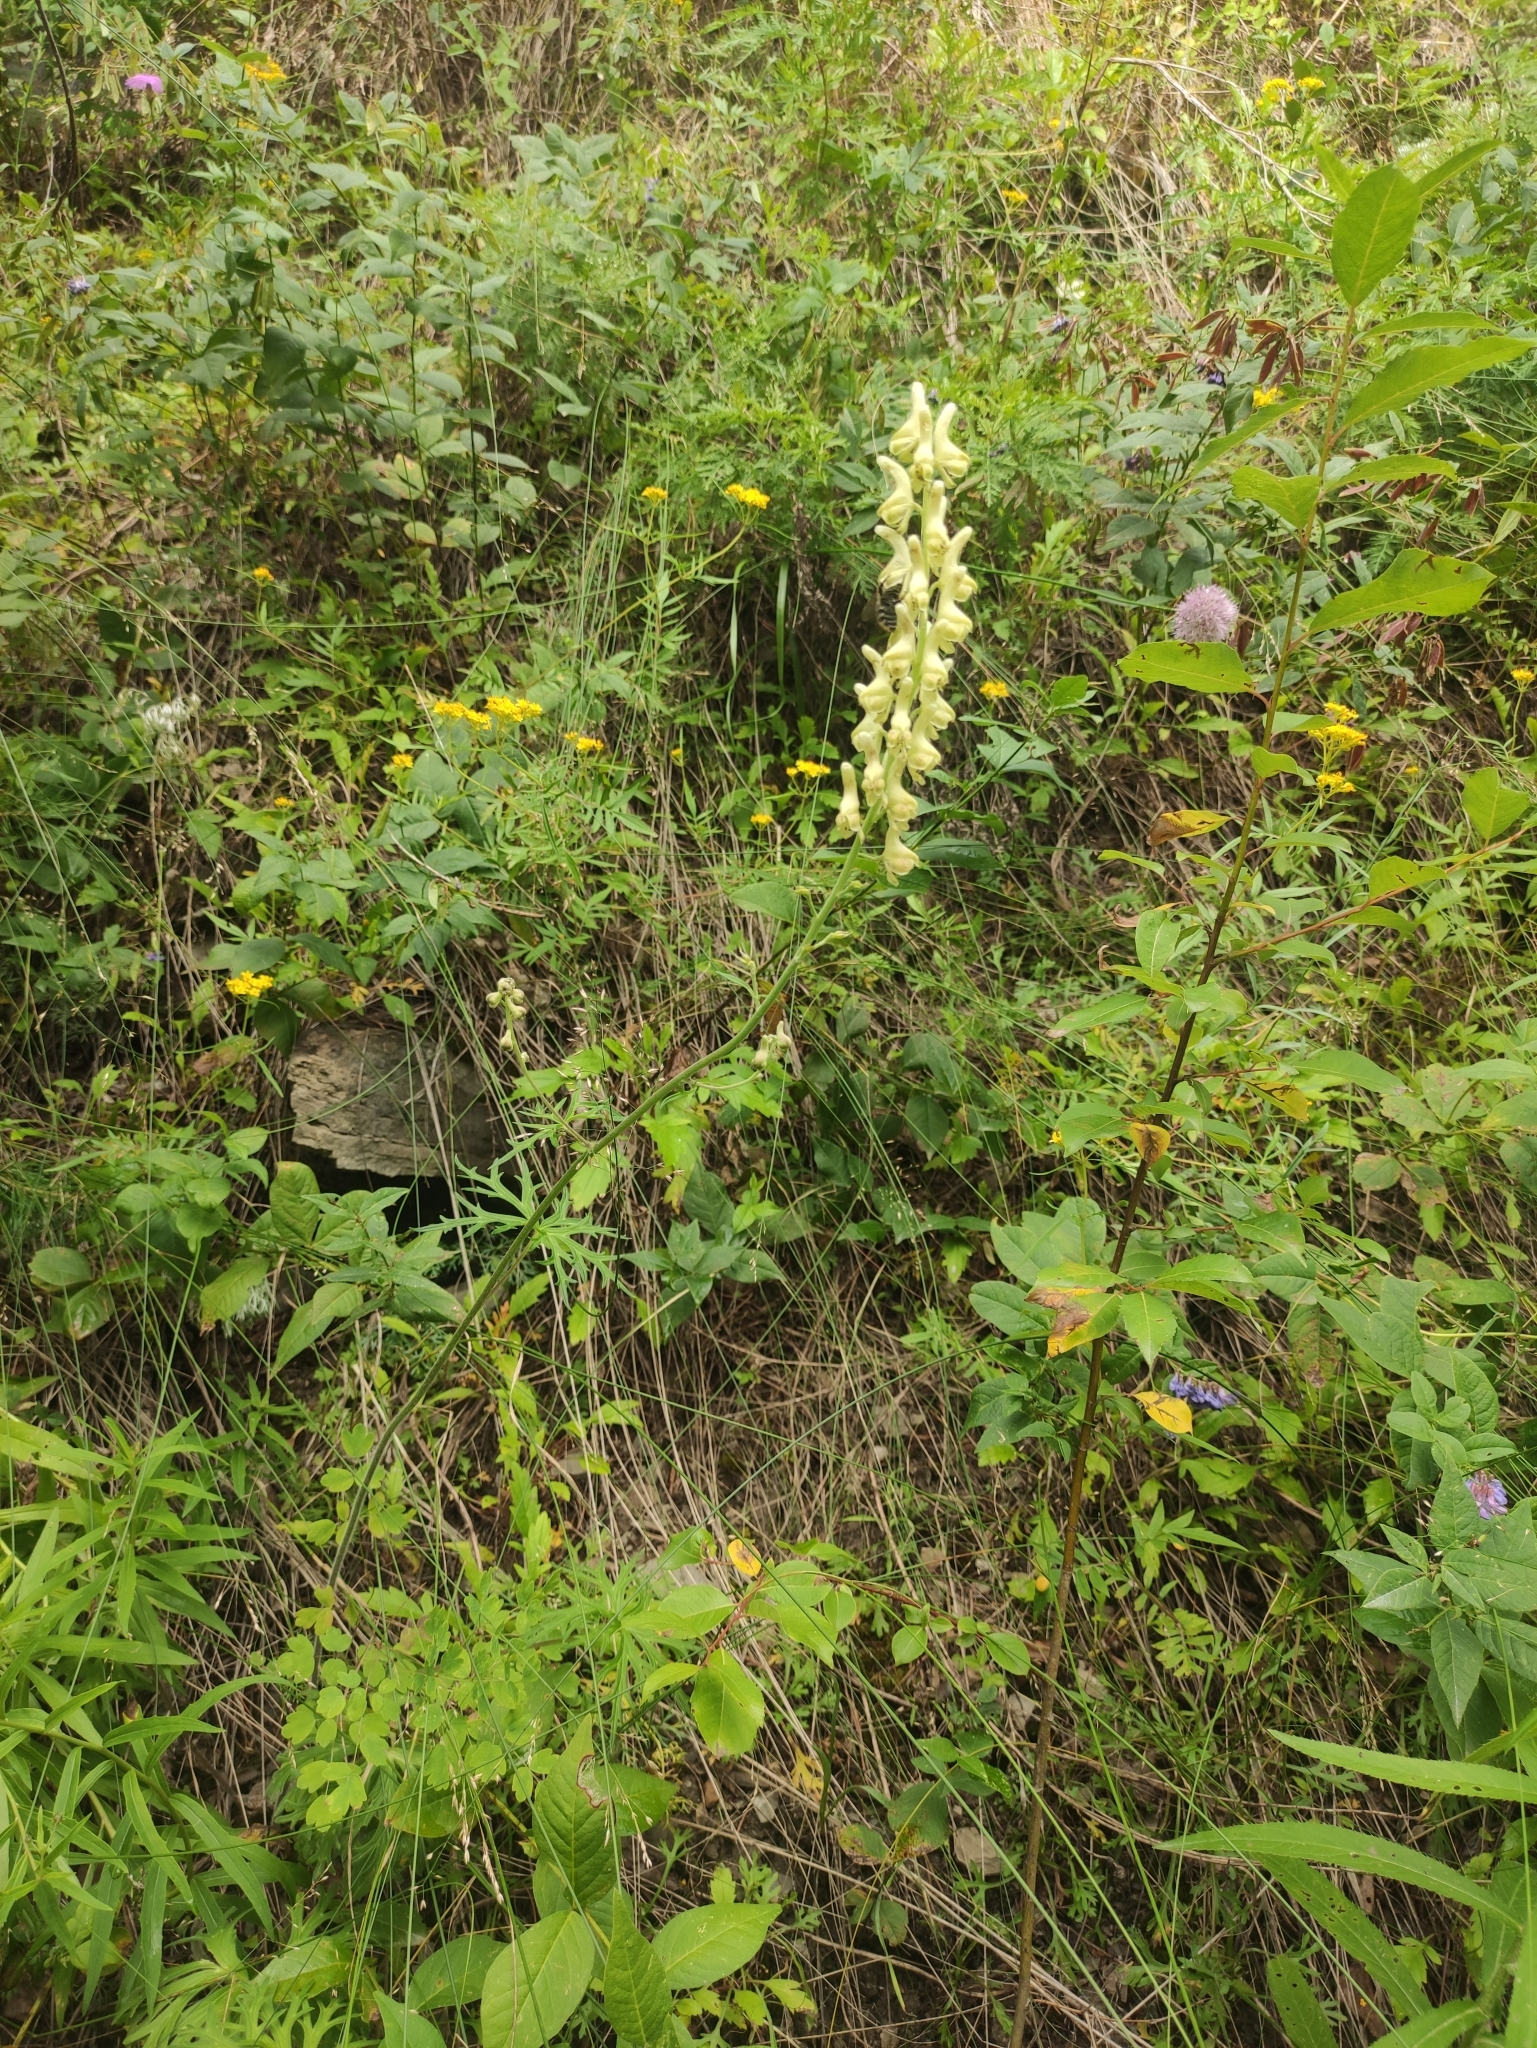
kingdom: Plantae
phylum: Tracheophyta
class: Magnoliopsida
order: Ranunculales
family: Ranunculaceae
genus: Aconitum
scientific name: Aconitum barbatum
